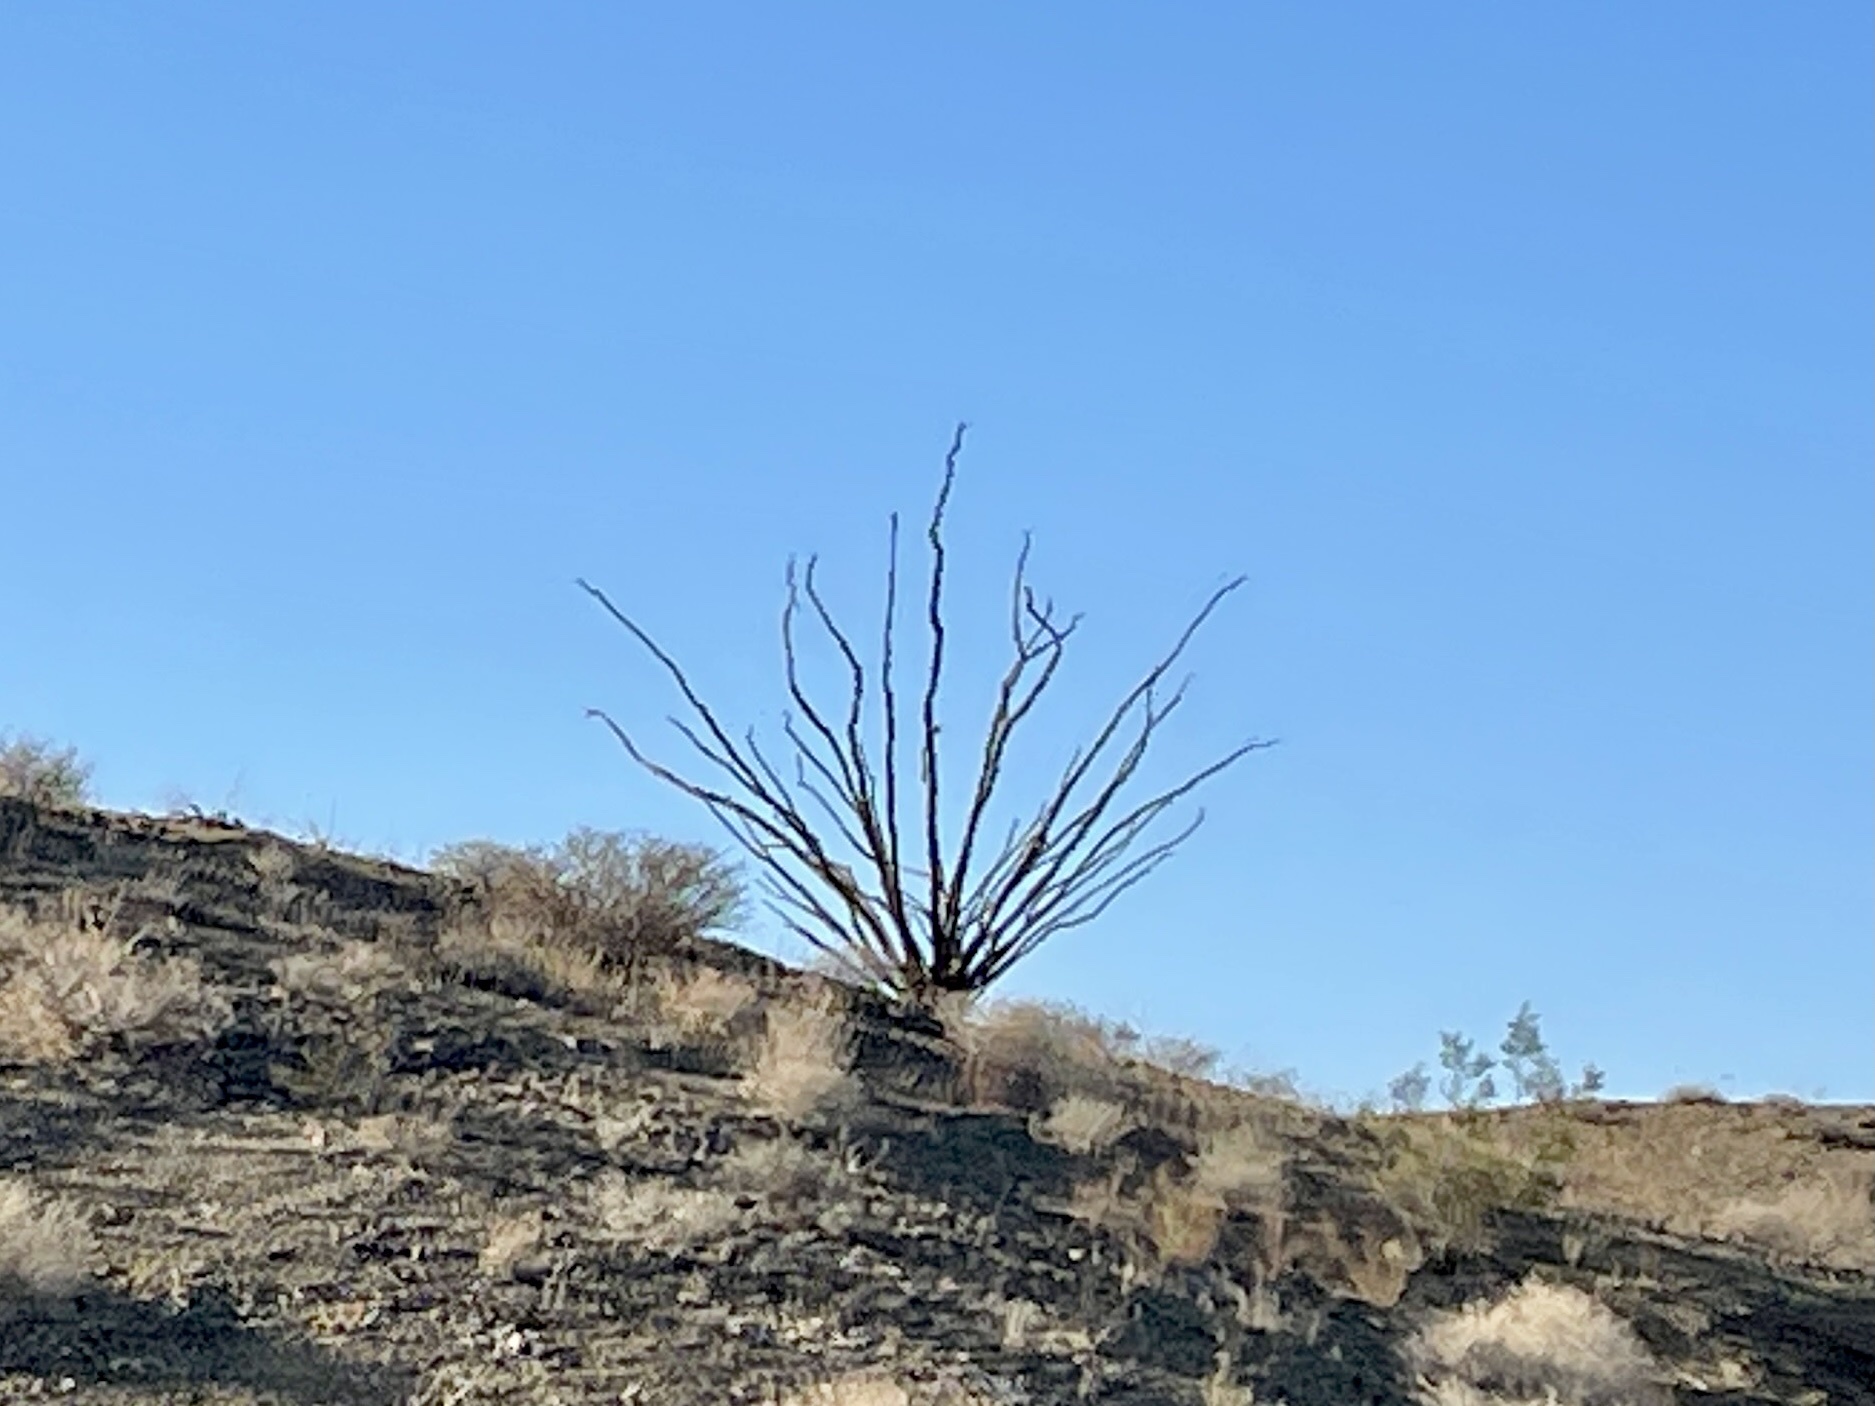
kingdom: Plantae
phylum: Tracheophyta
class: Magnoliopsida
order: Ericales
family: Fouquieriaceae
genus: Fouquieria
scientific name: Fouquieria splendens
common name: Vine-cactus
